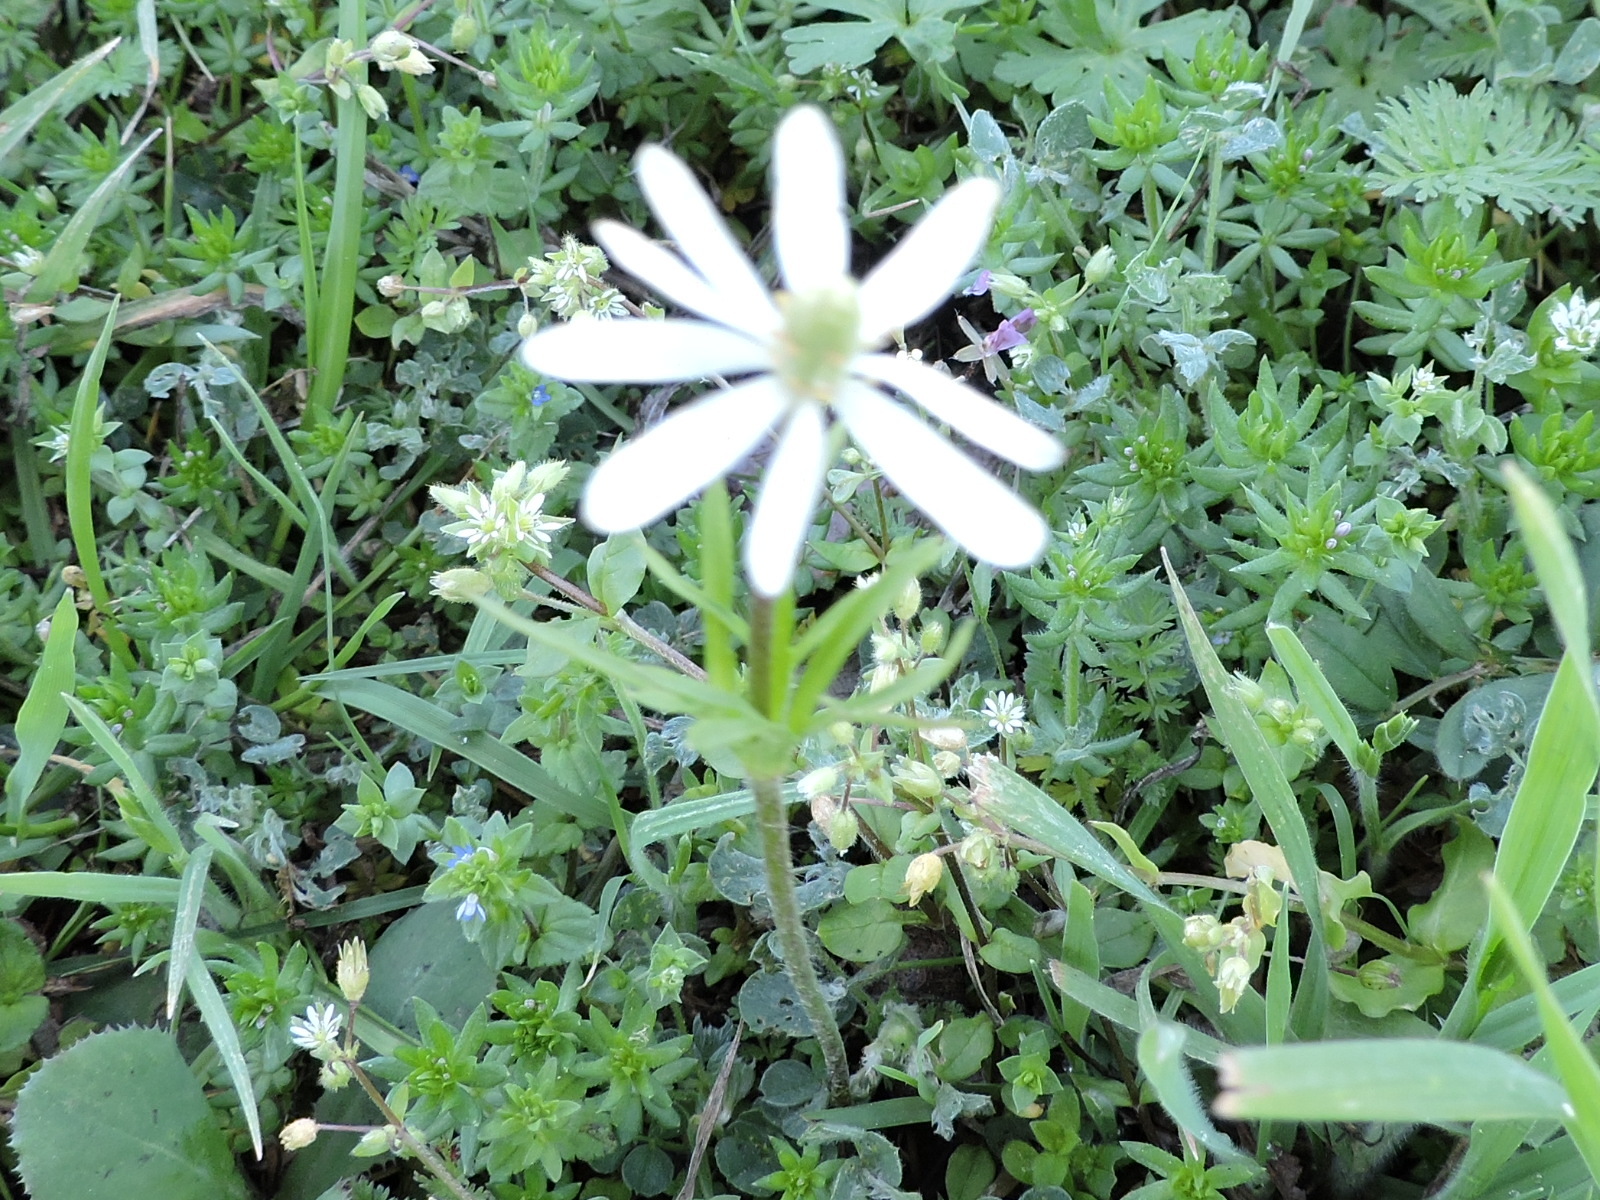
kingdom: Plantae
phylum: Tracheophyta
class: Magnoliopsida
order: Ranunculales
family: Ranunculaceae
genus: Anemone
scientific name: Anemone berlandieri
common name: Ten-petal anemone
